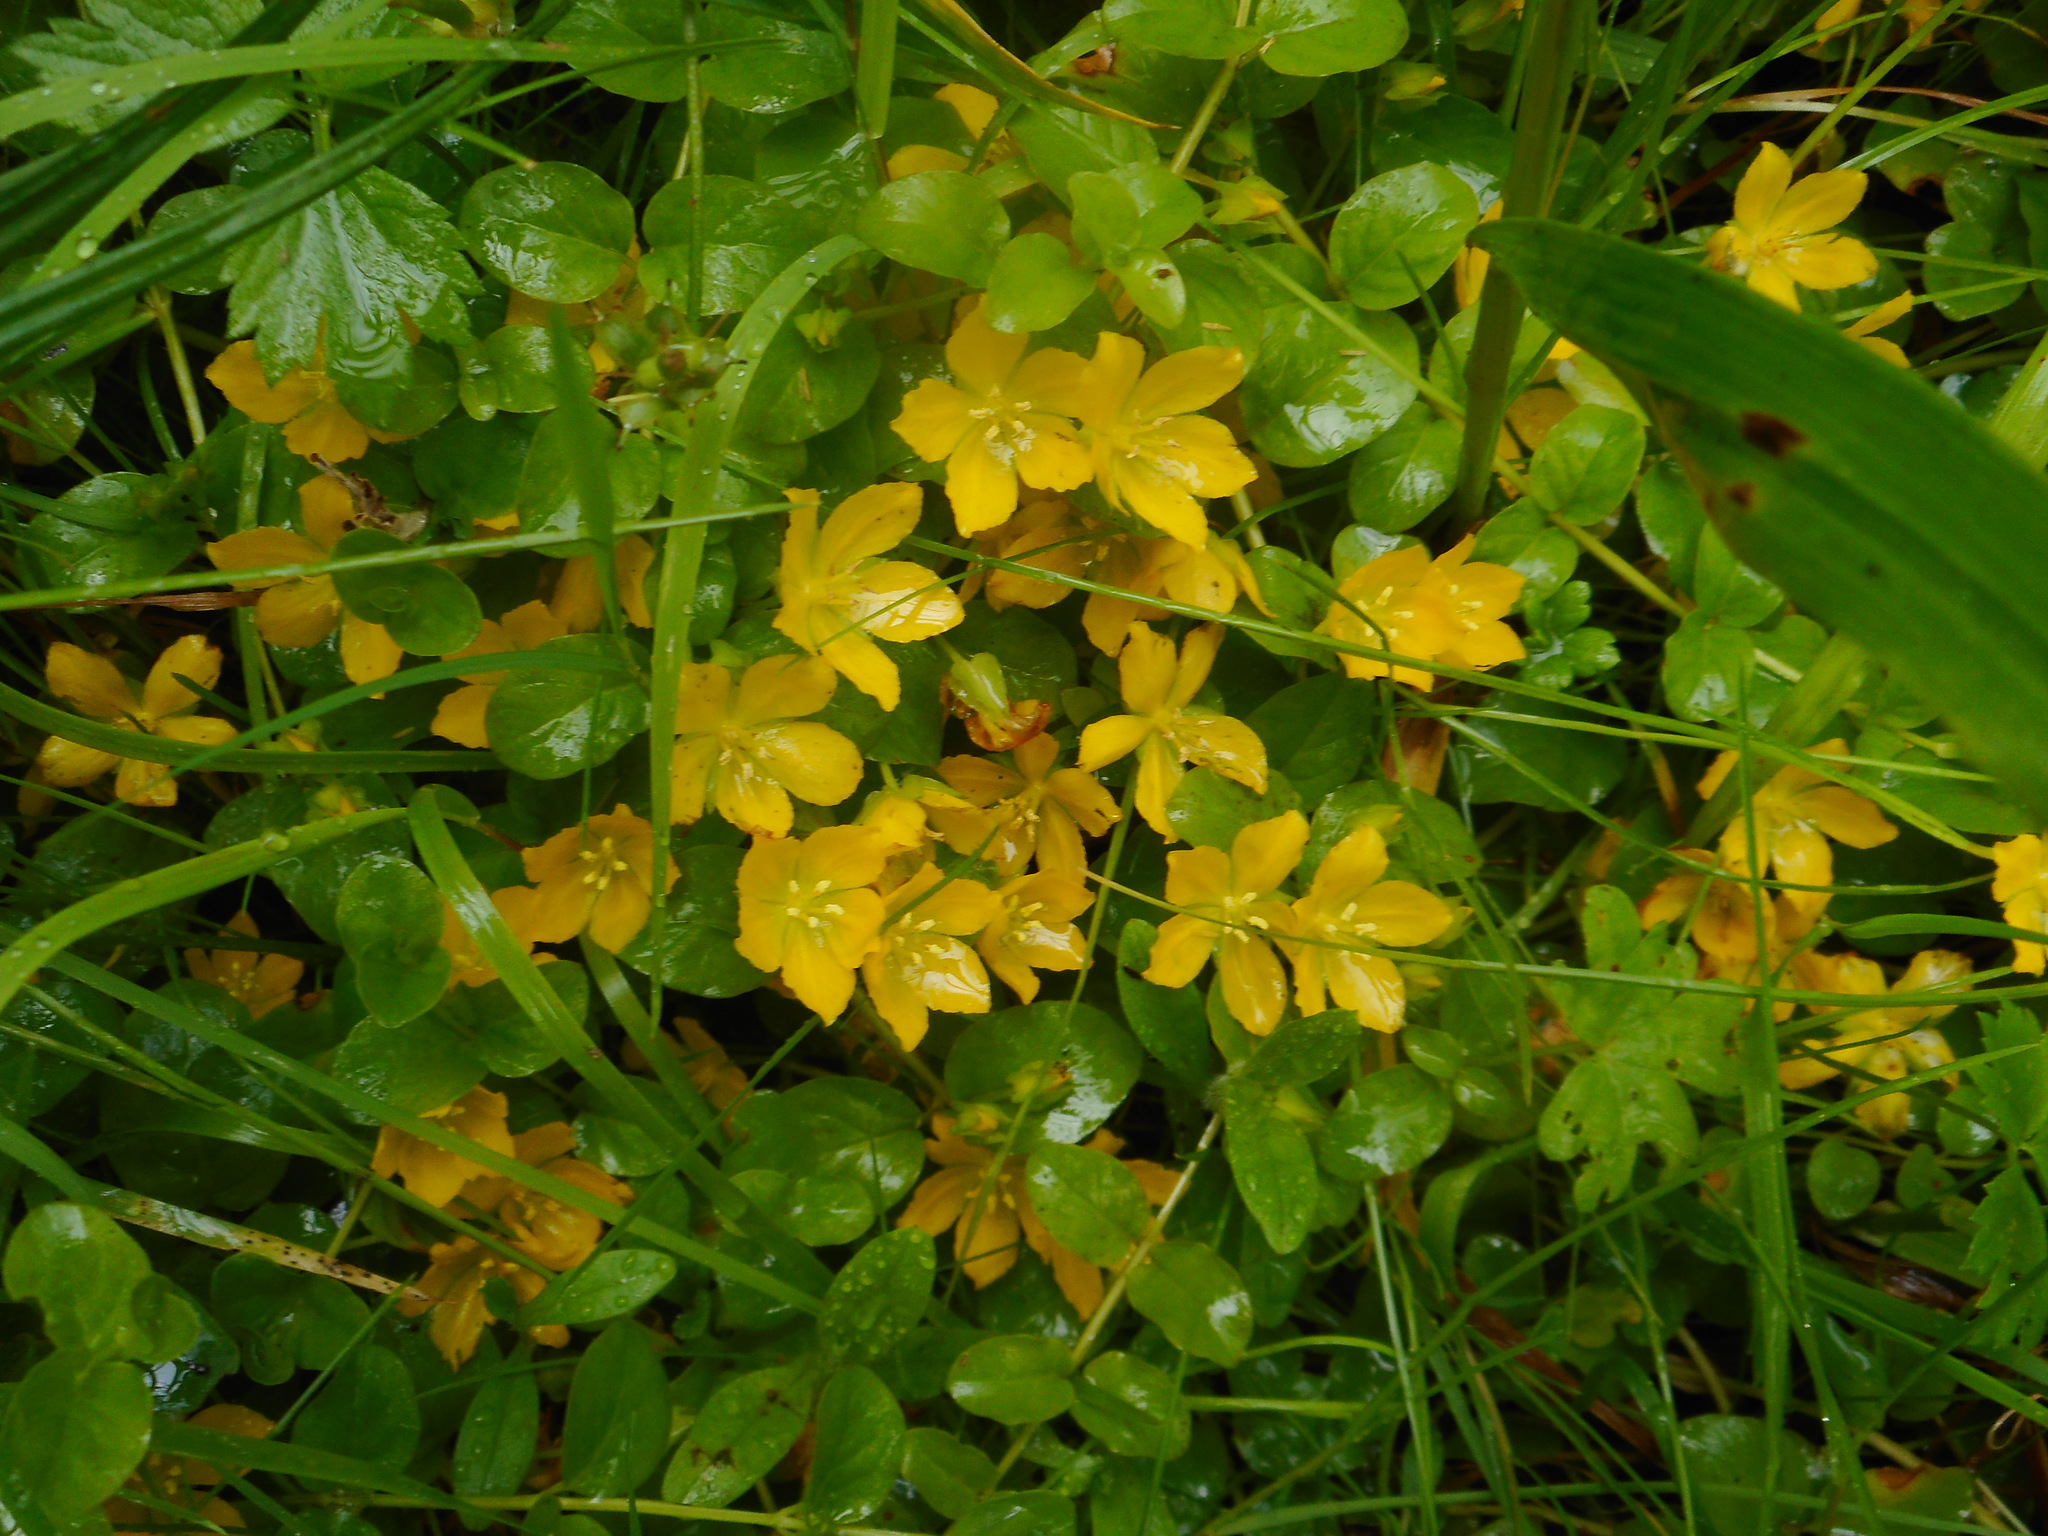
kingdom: Plantae
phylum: Tracheophyta
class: Magnoliopsida
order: Ericales
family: Primulaceae
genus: Lysimachia
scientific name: Lysimachia nummularia
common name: Moneywort
